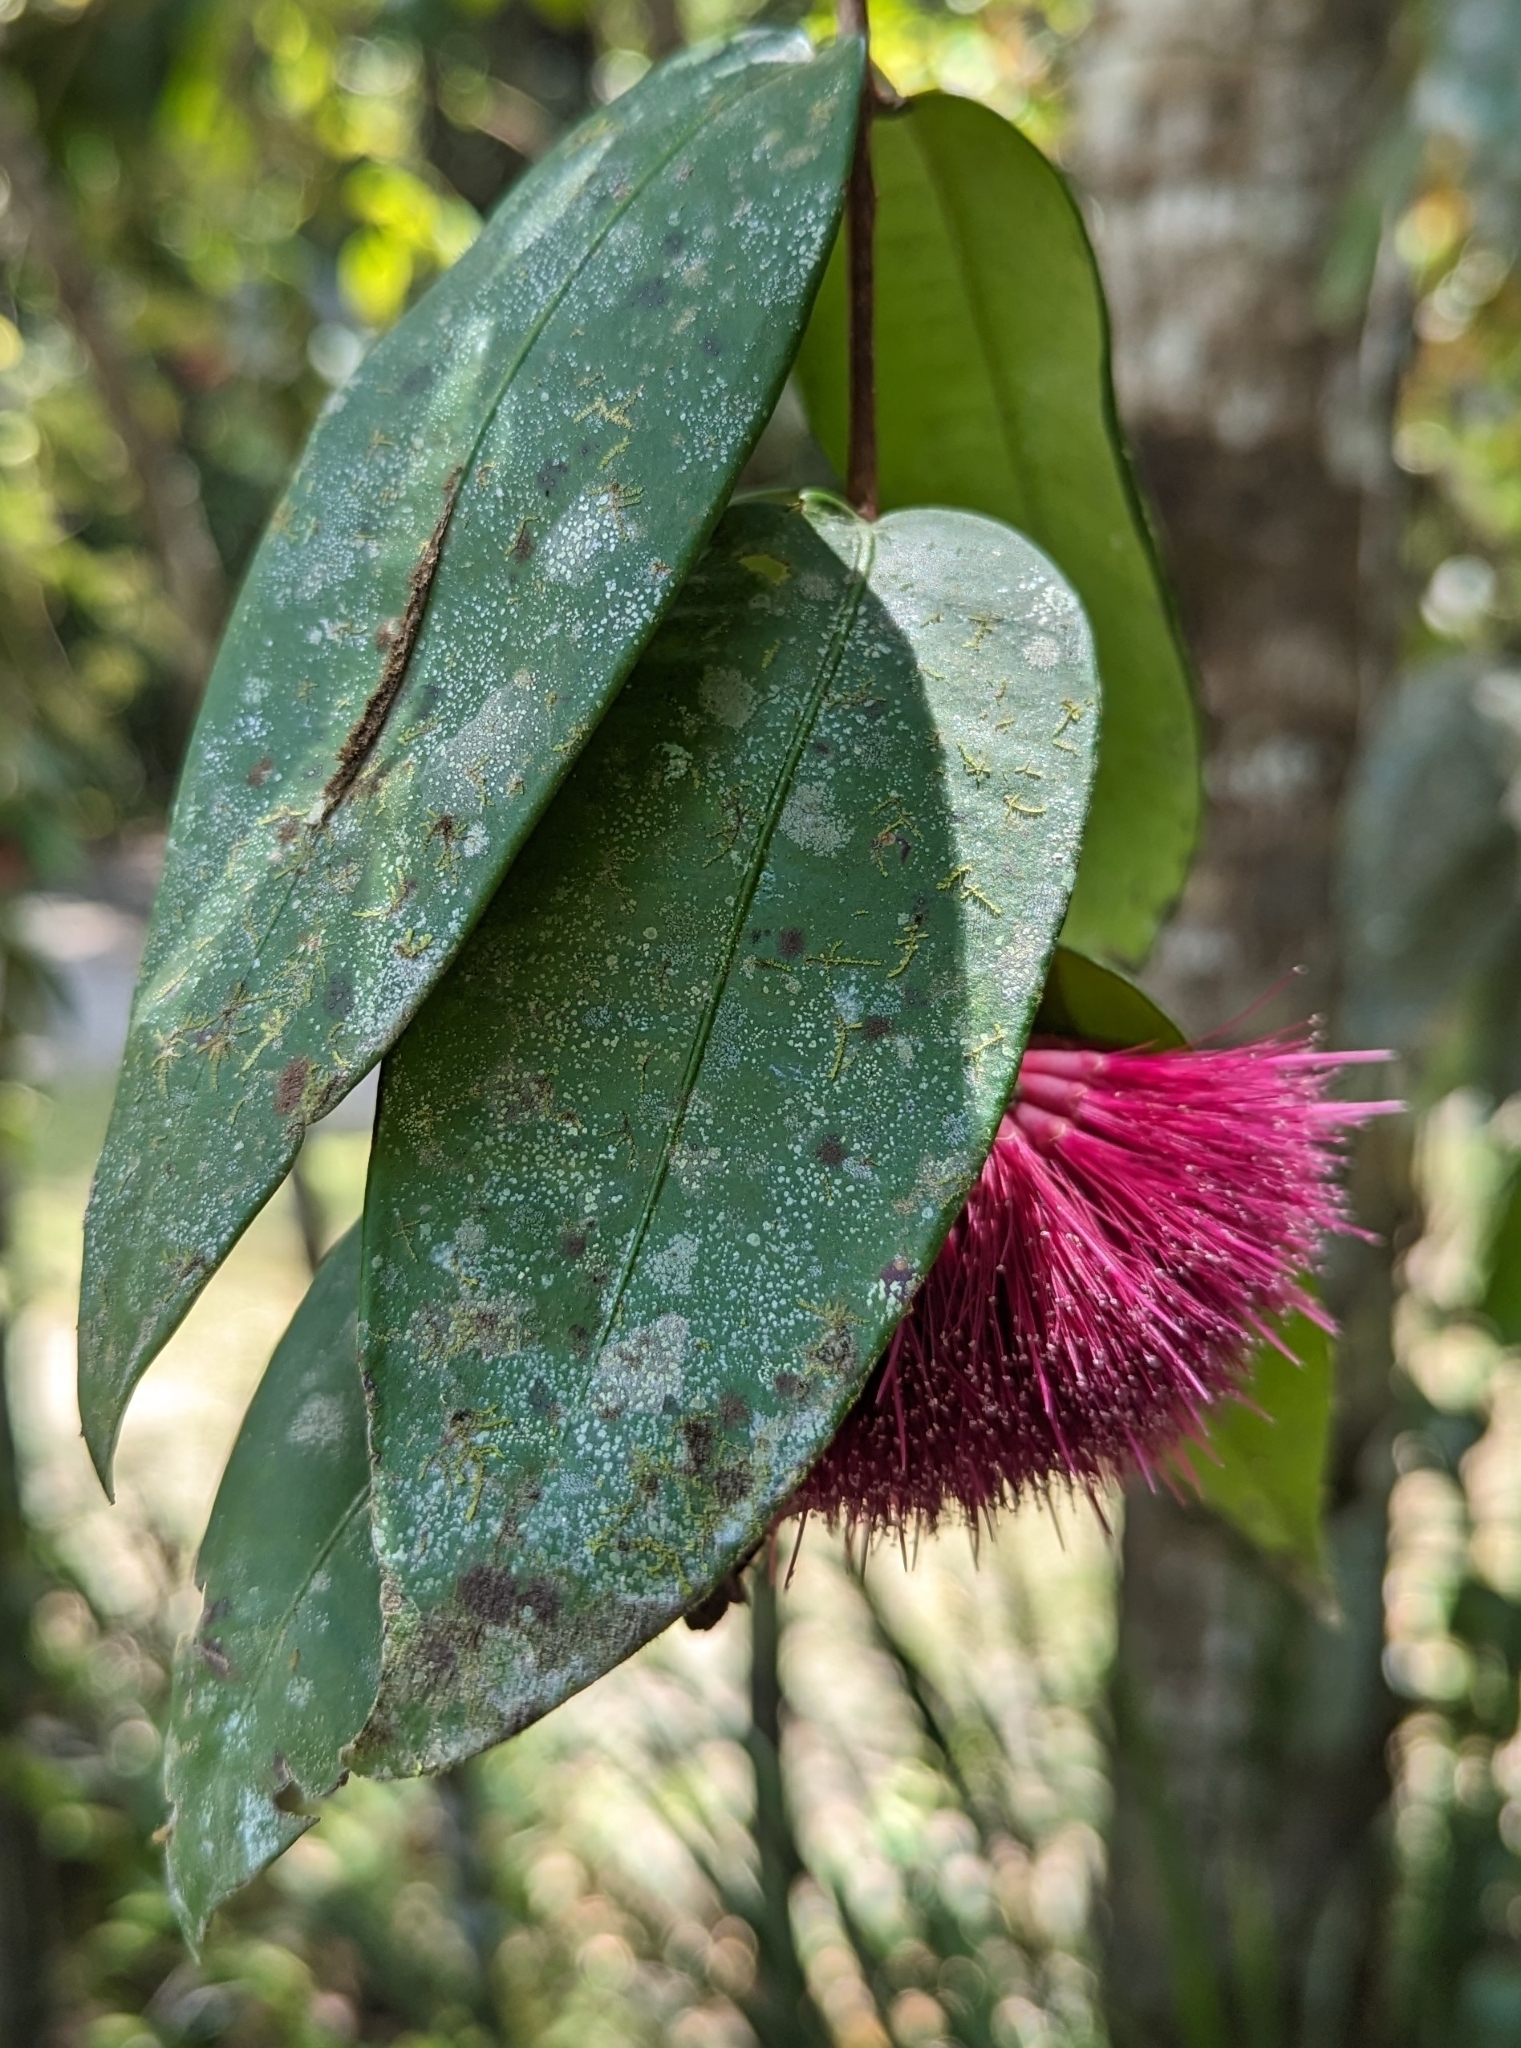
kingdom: Plantae
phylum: Tracheophyta
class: Magnoliopsida
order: Myrtales
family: Myrtaceae
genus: Syzygium
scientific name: Syzygium wilsonii
